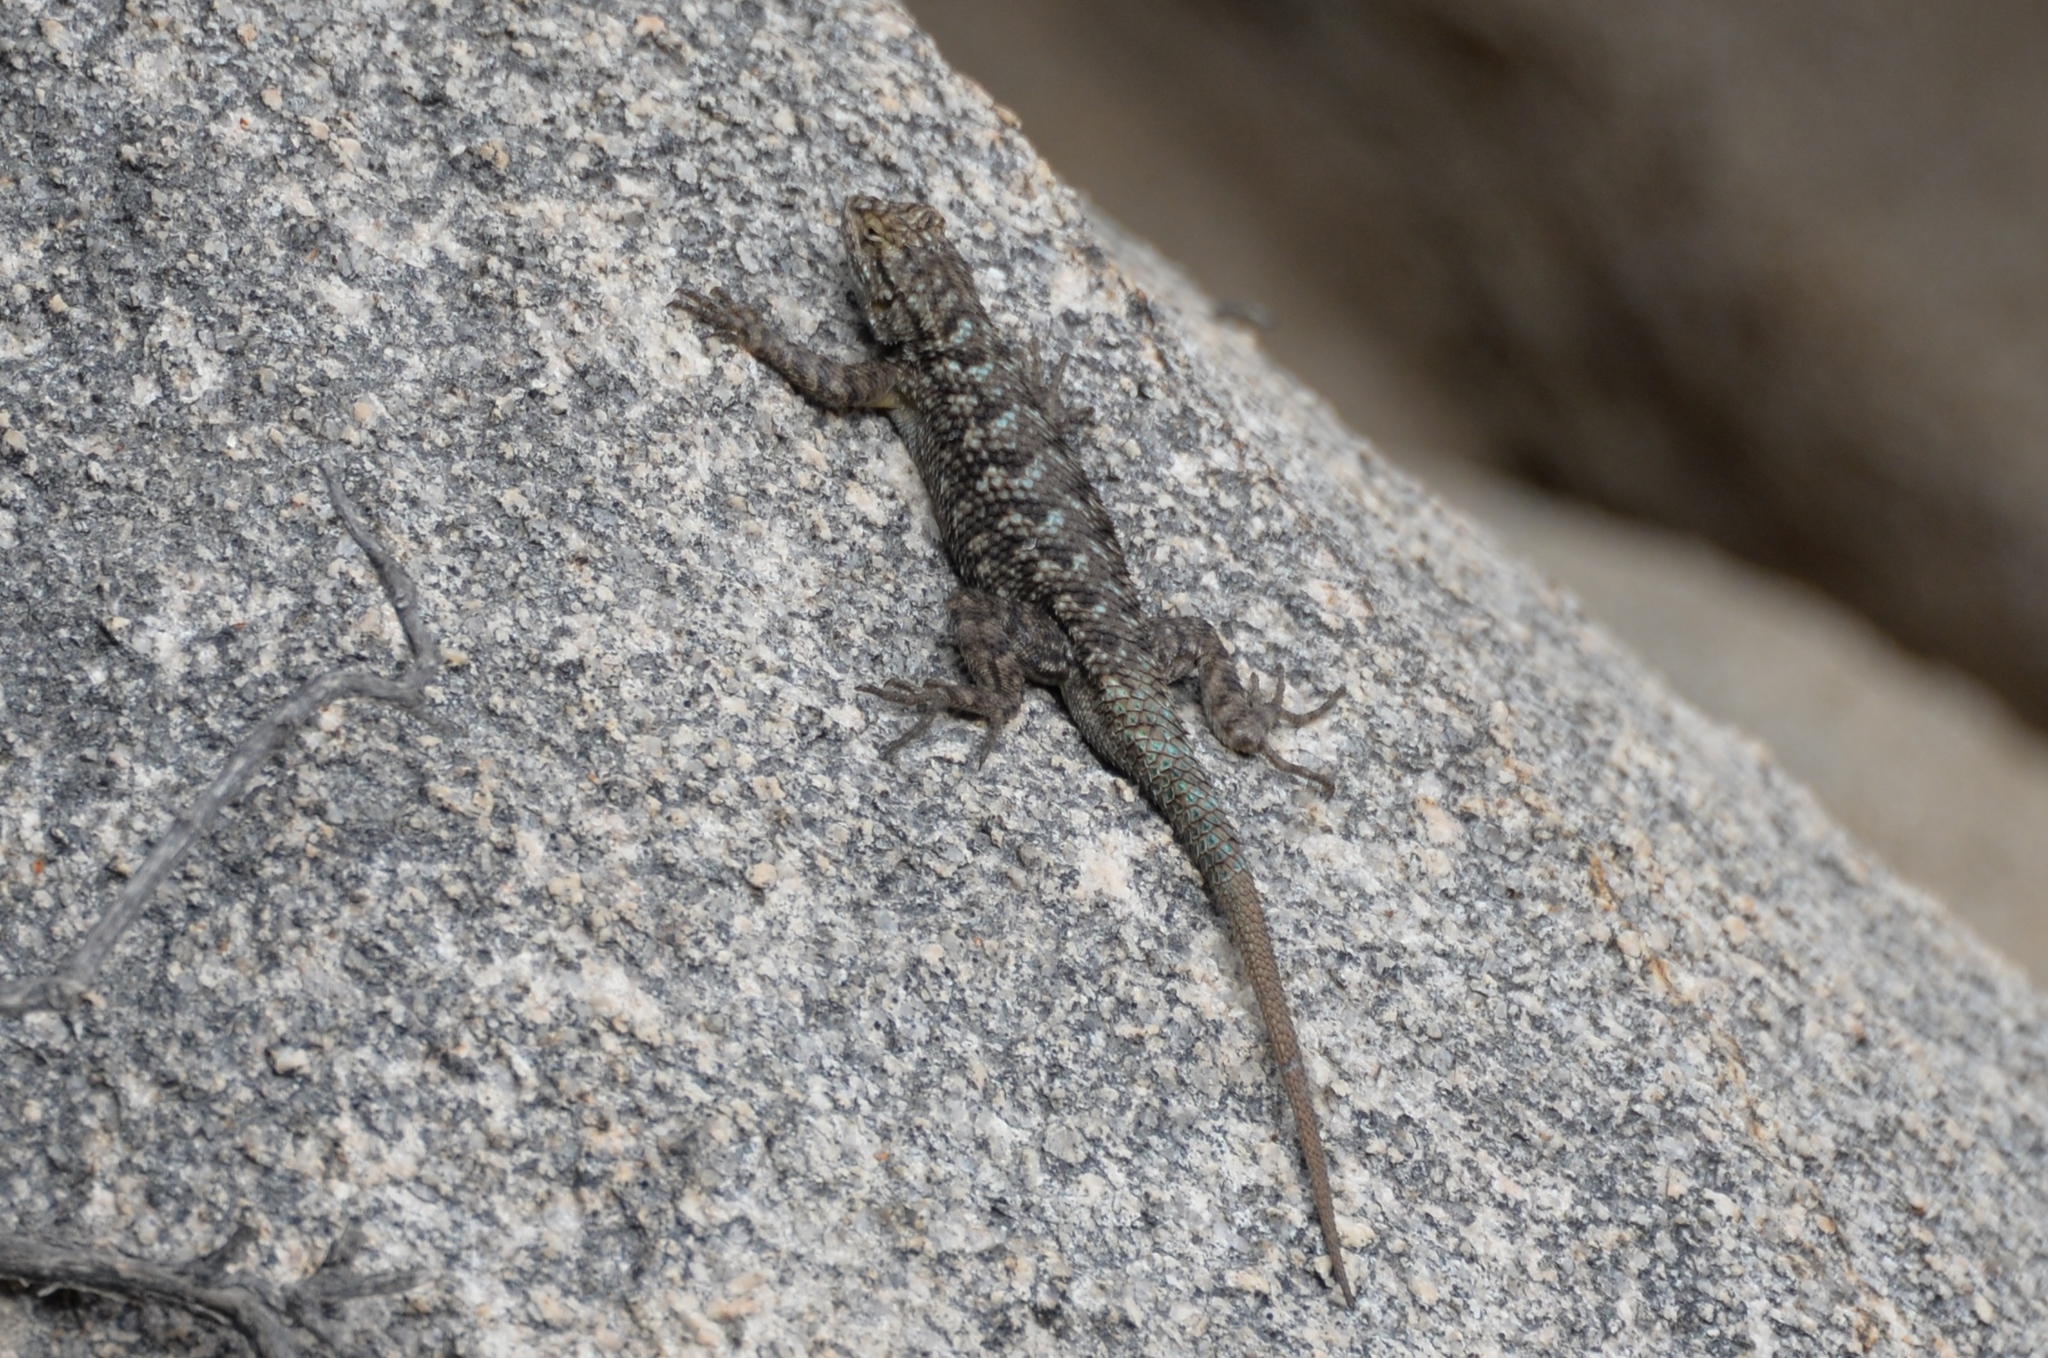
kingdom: Animalia
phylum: Chordata
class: Squamata
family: Phrynosomatidae
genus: Sceloporus
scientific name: Sceloporus occidentalis
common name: Western fence lizard
